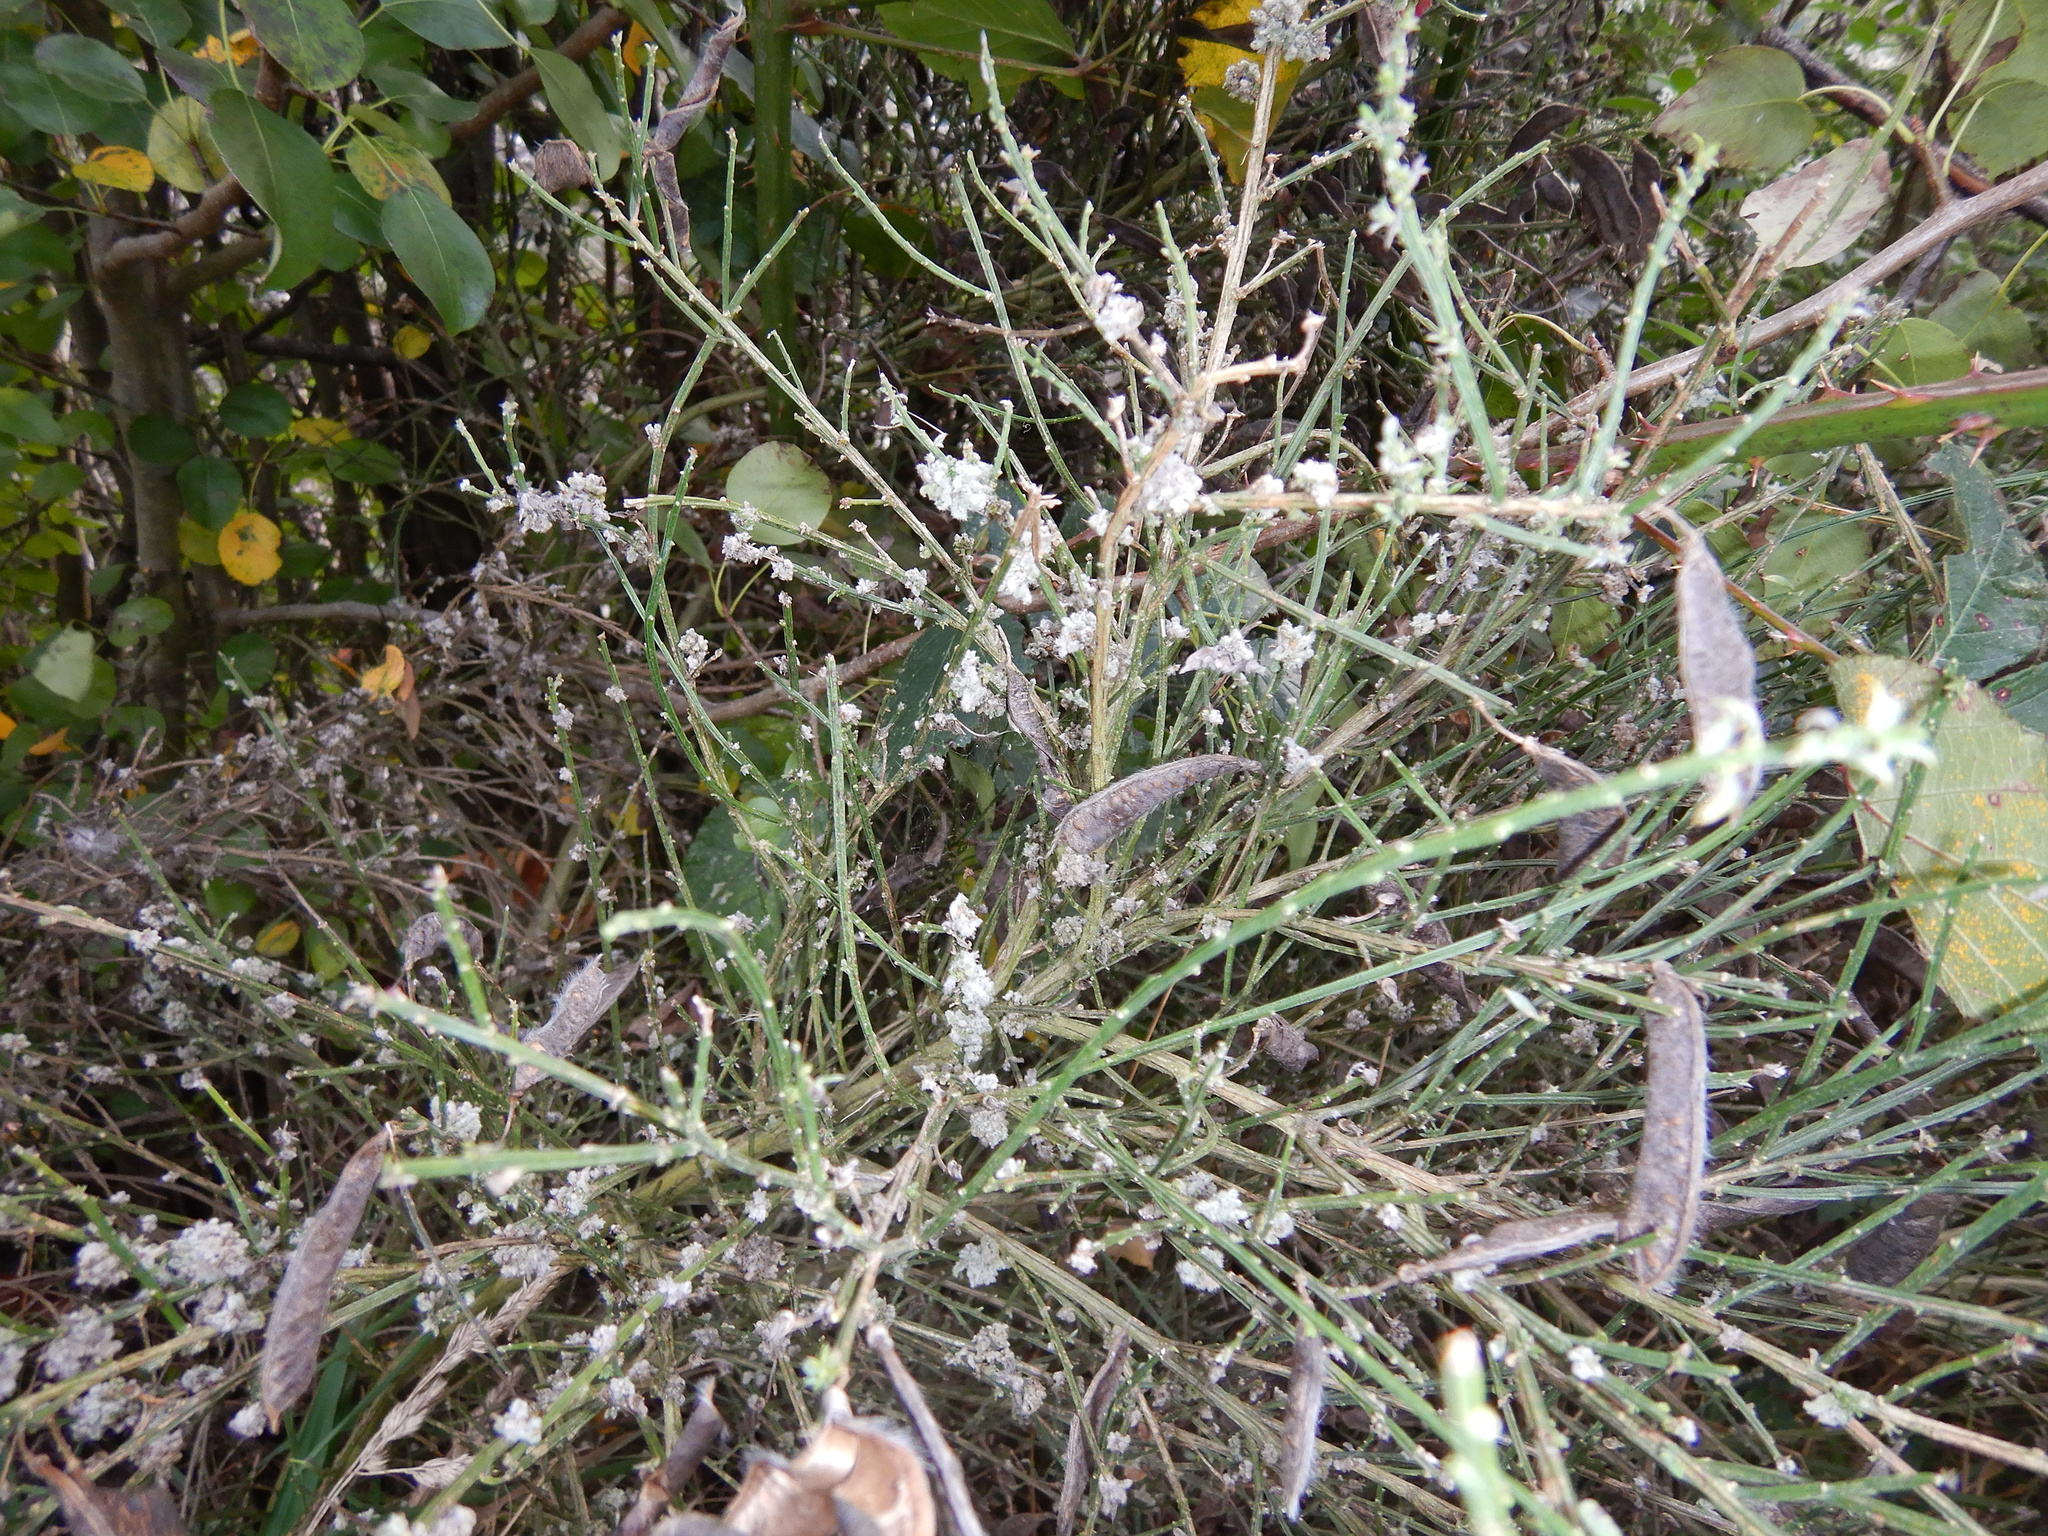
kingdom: Animalia
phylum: Arthropoda
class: Arachnida
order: Trombidiformes
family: Eriophyidae
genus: Aceria
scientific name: Aceria genistae
